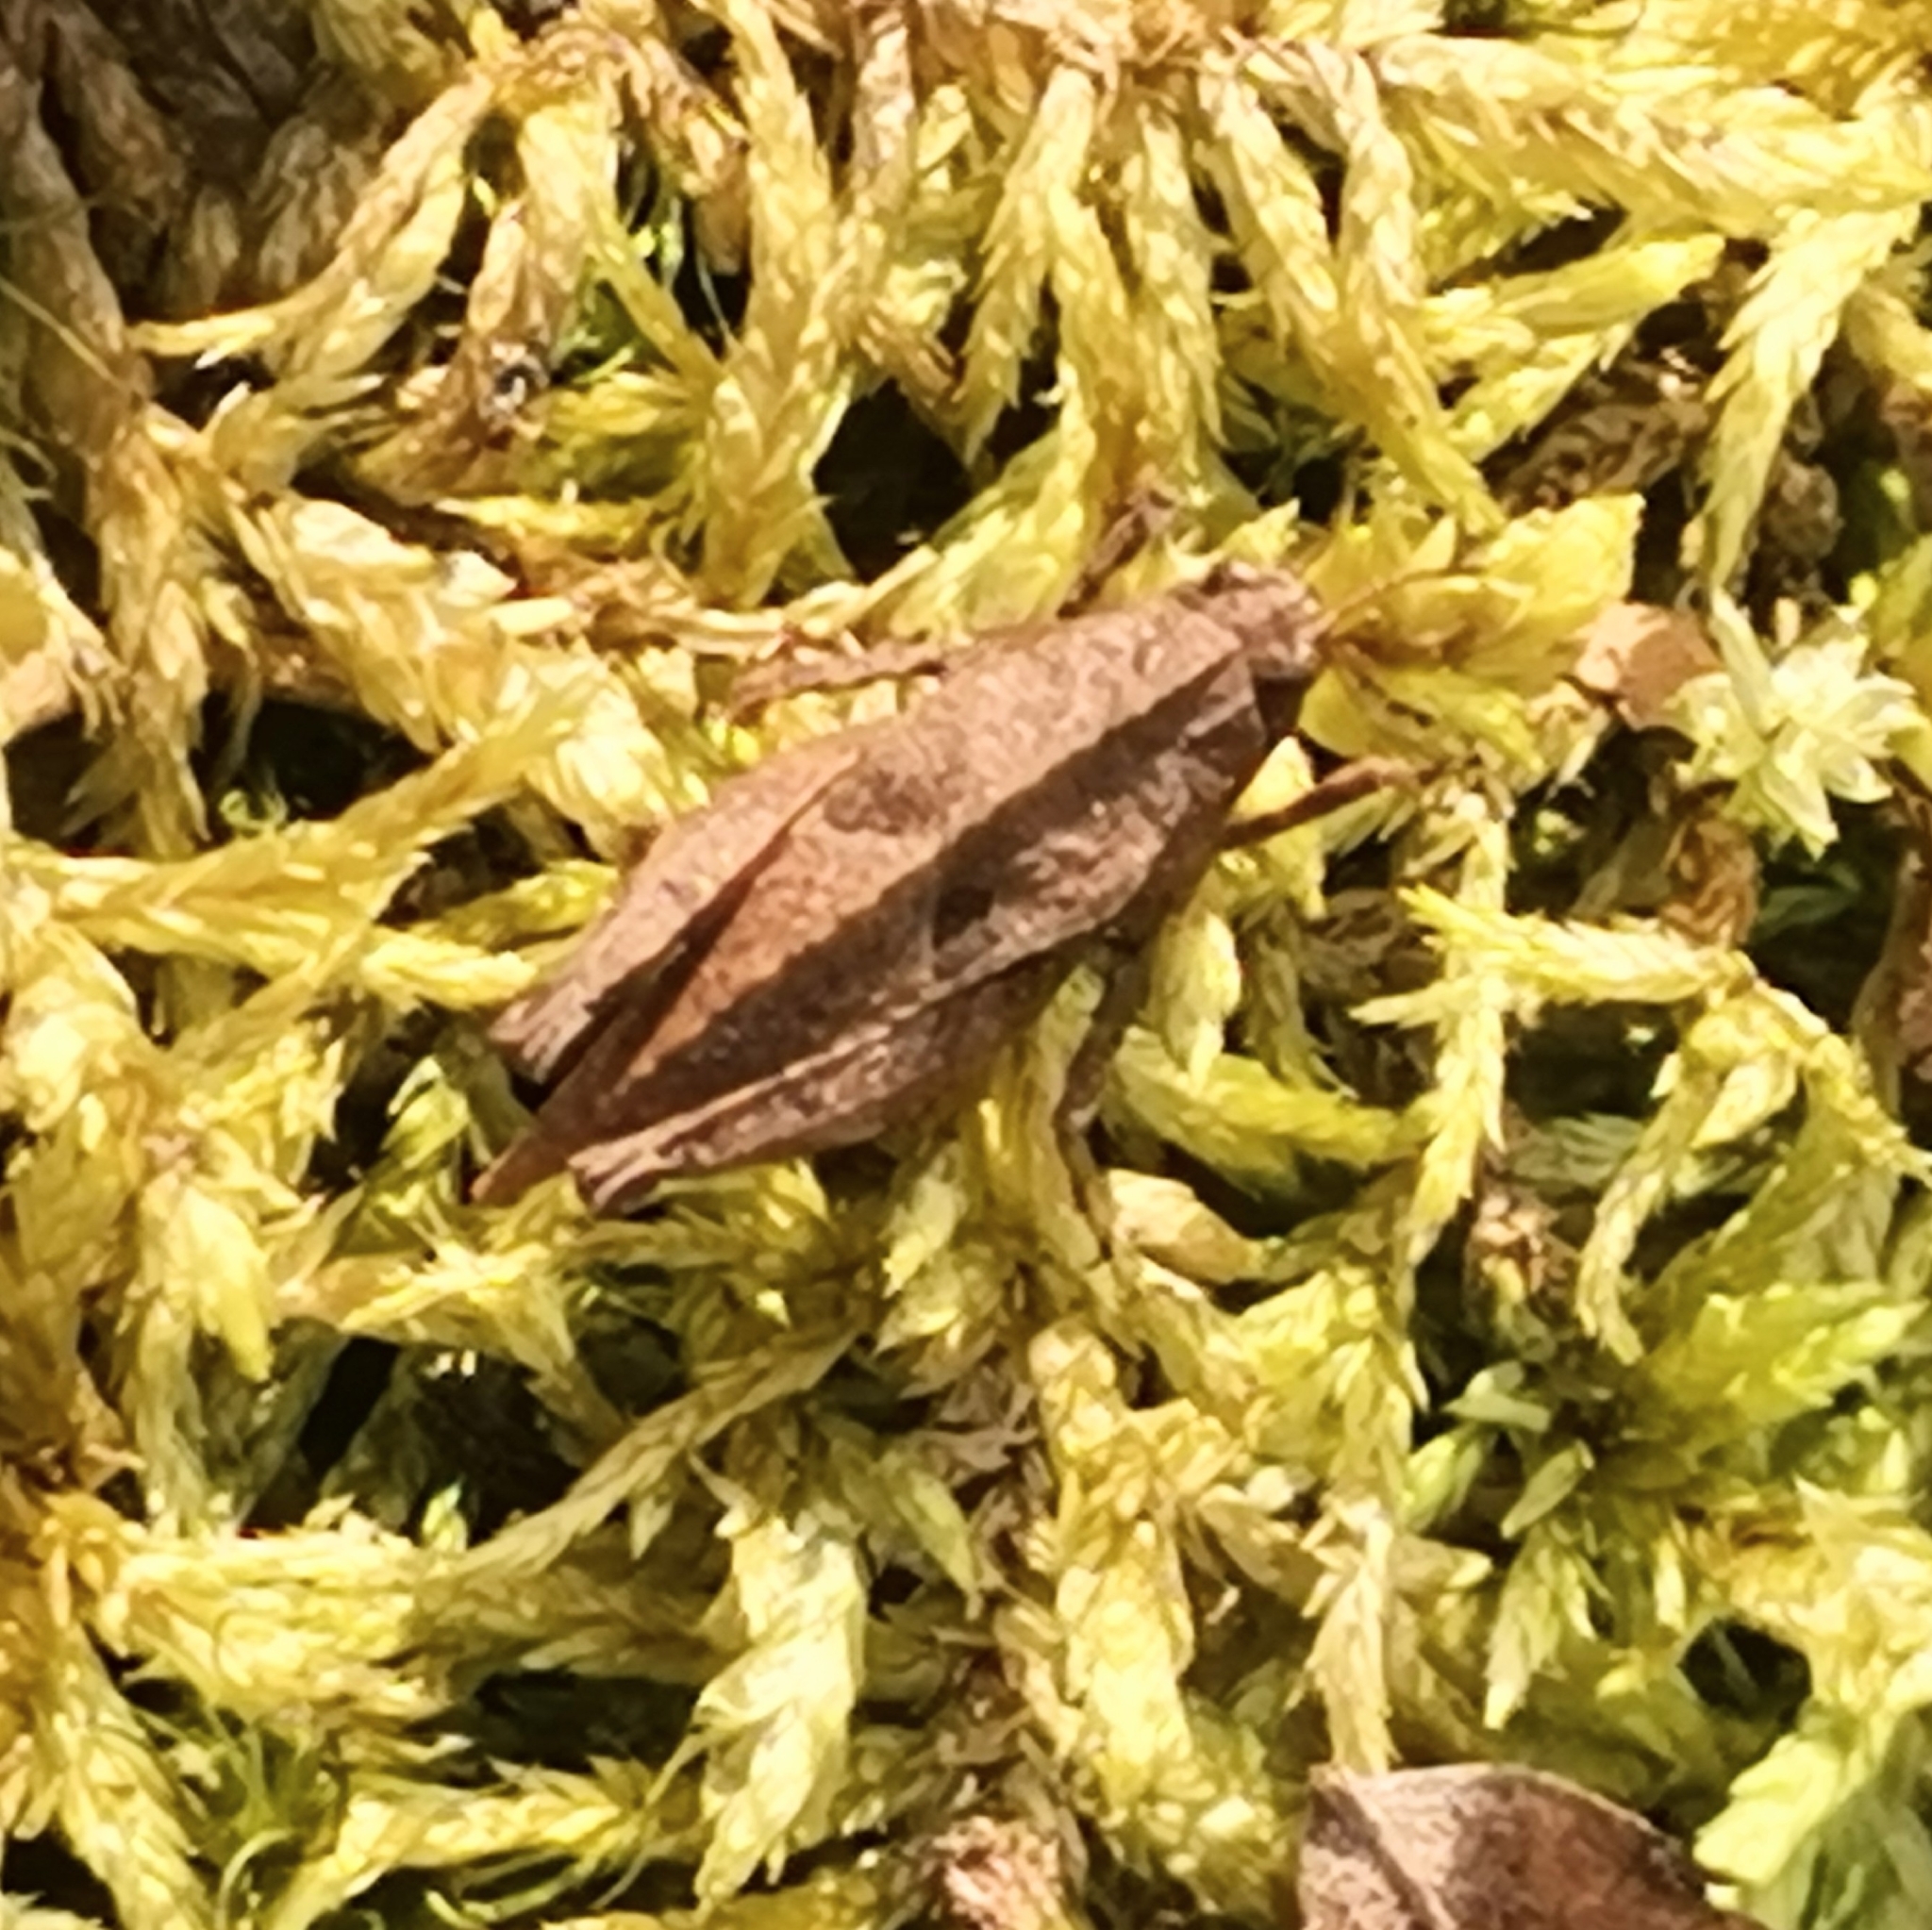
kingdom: Animalia
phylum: Arthropoda
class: Insecta
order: Orthoptera
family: Tetrigidae
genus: Tetrix
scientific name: Tetrix bipunctata
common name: Two-spotted groundhopper
